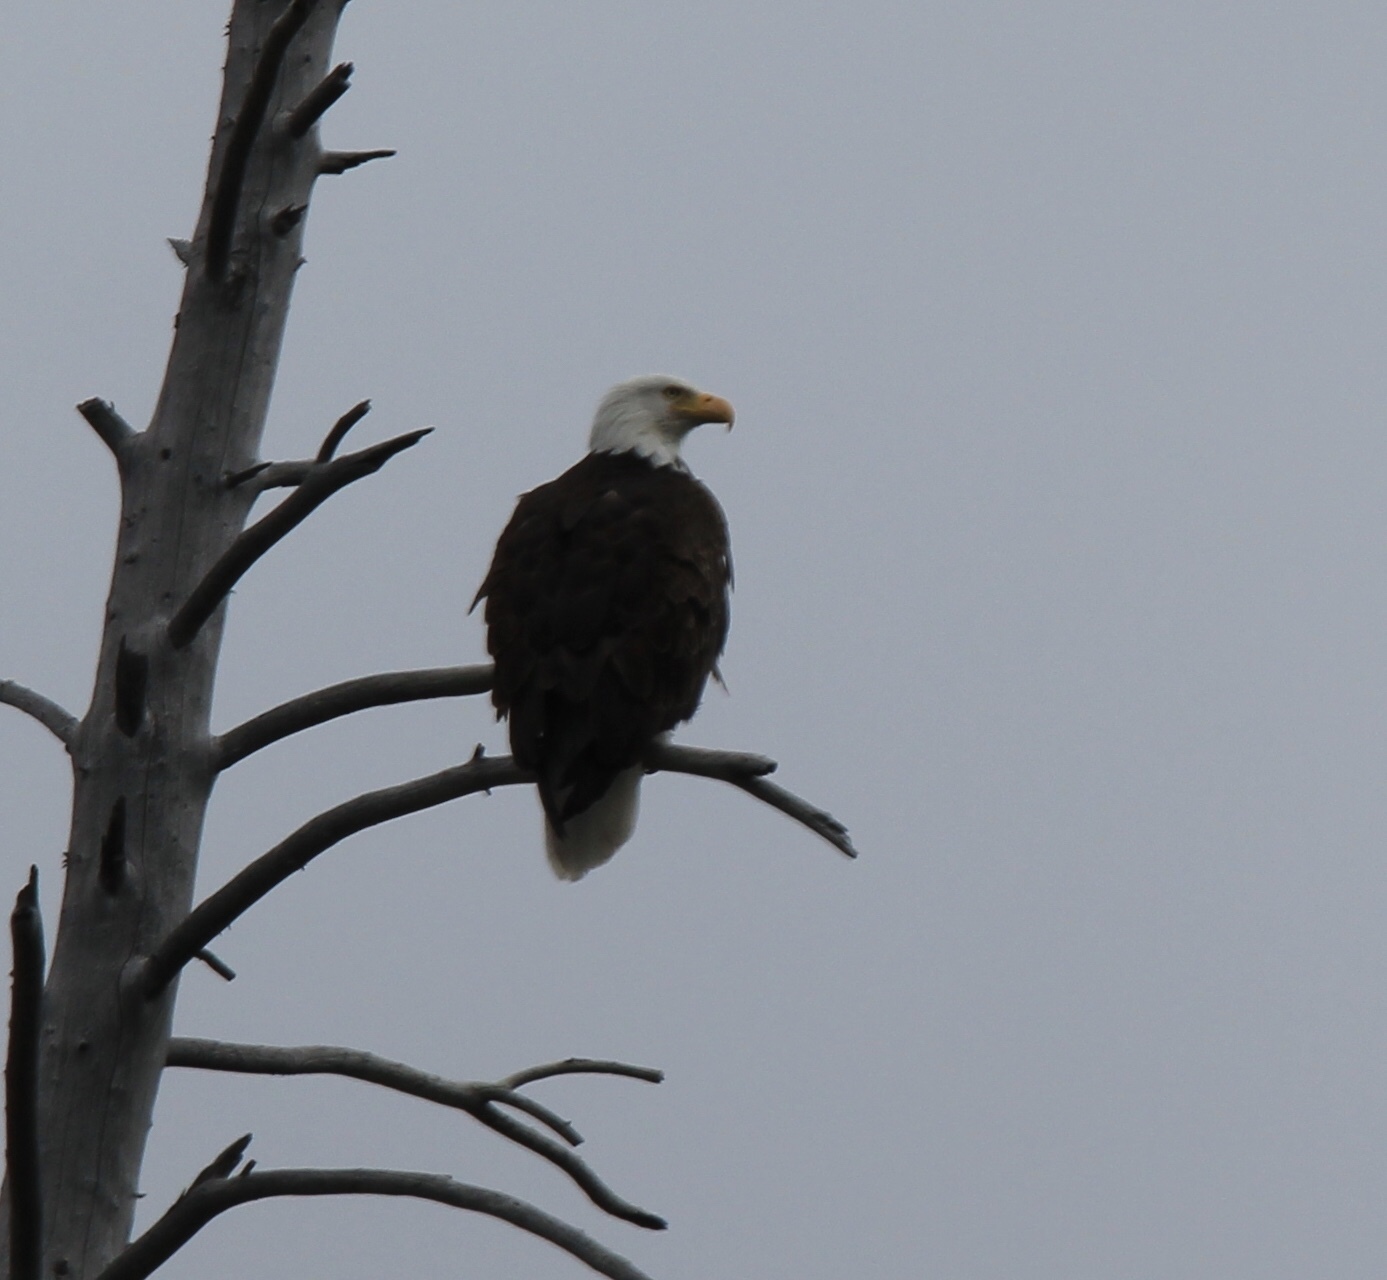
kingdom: Animalia
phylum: Chordata
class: Aves
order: Accipitriformes
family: Accipitridae
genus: Haliaeetus
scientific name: Haliaeetus leucocephalus
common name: Bald eagle
